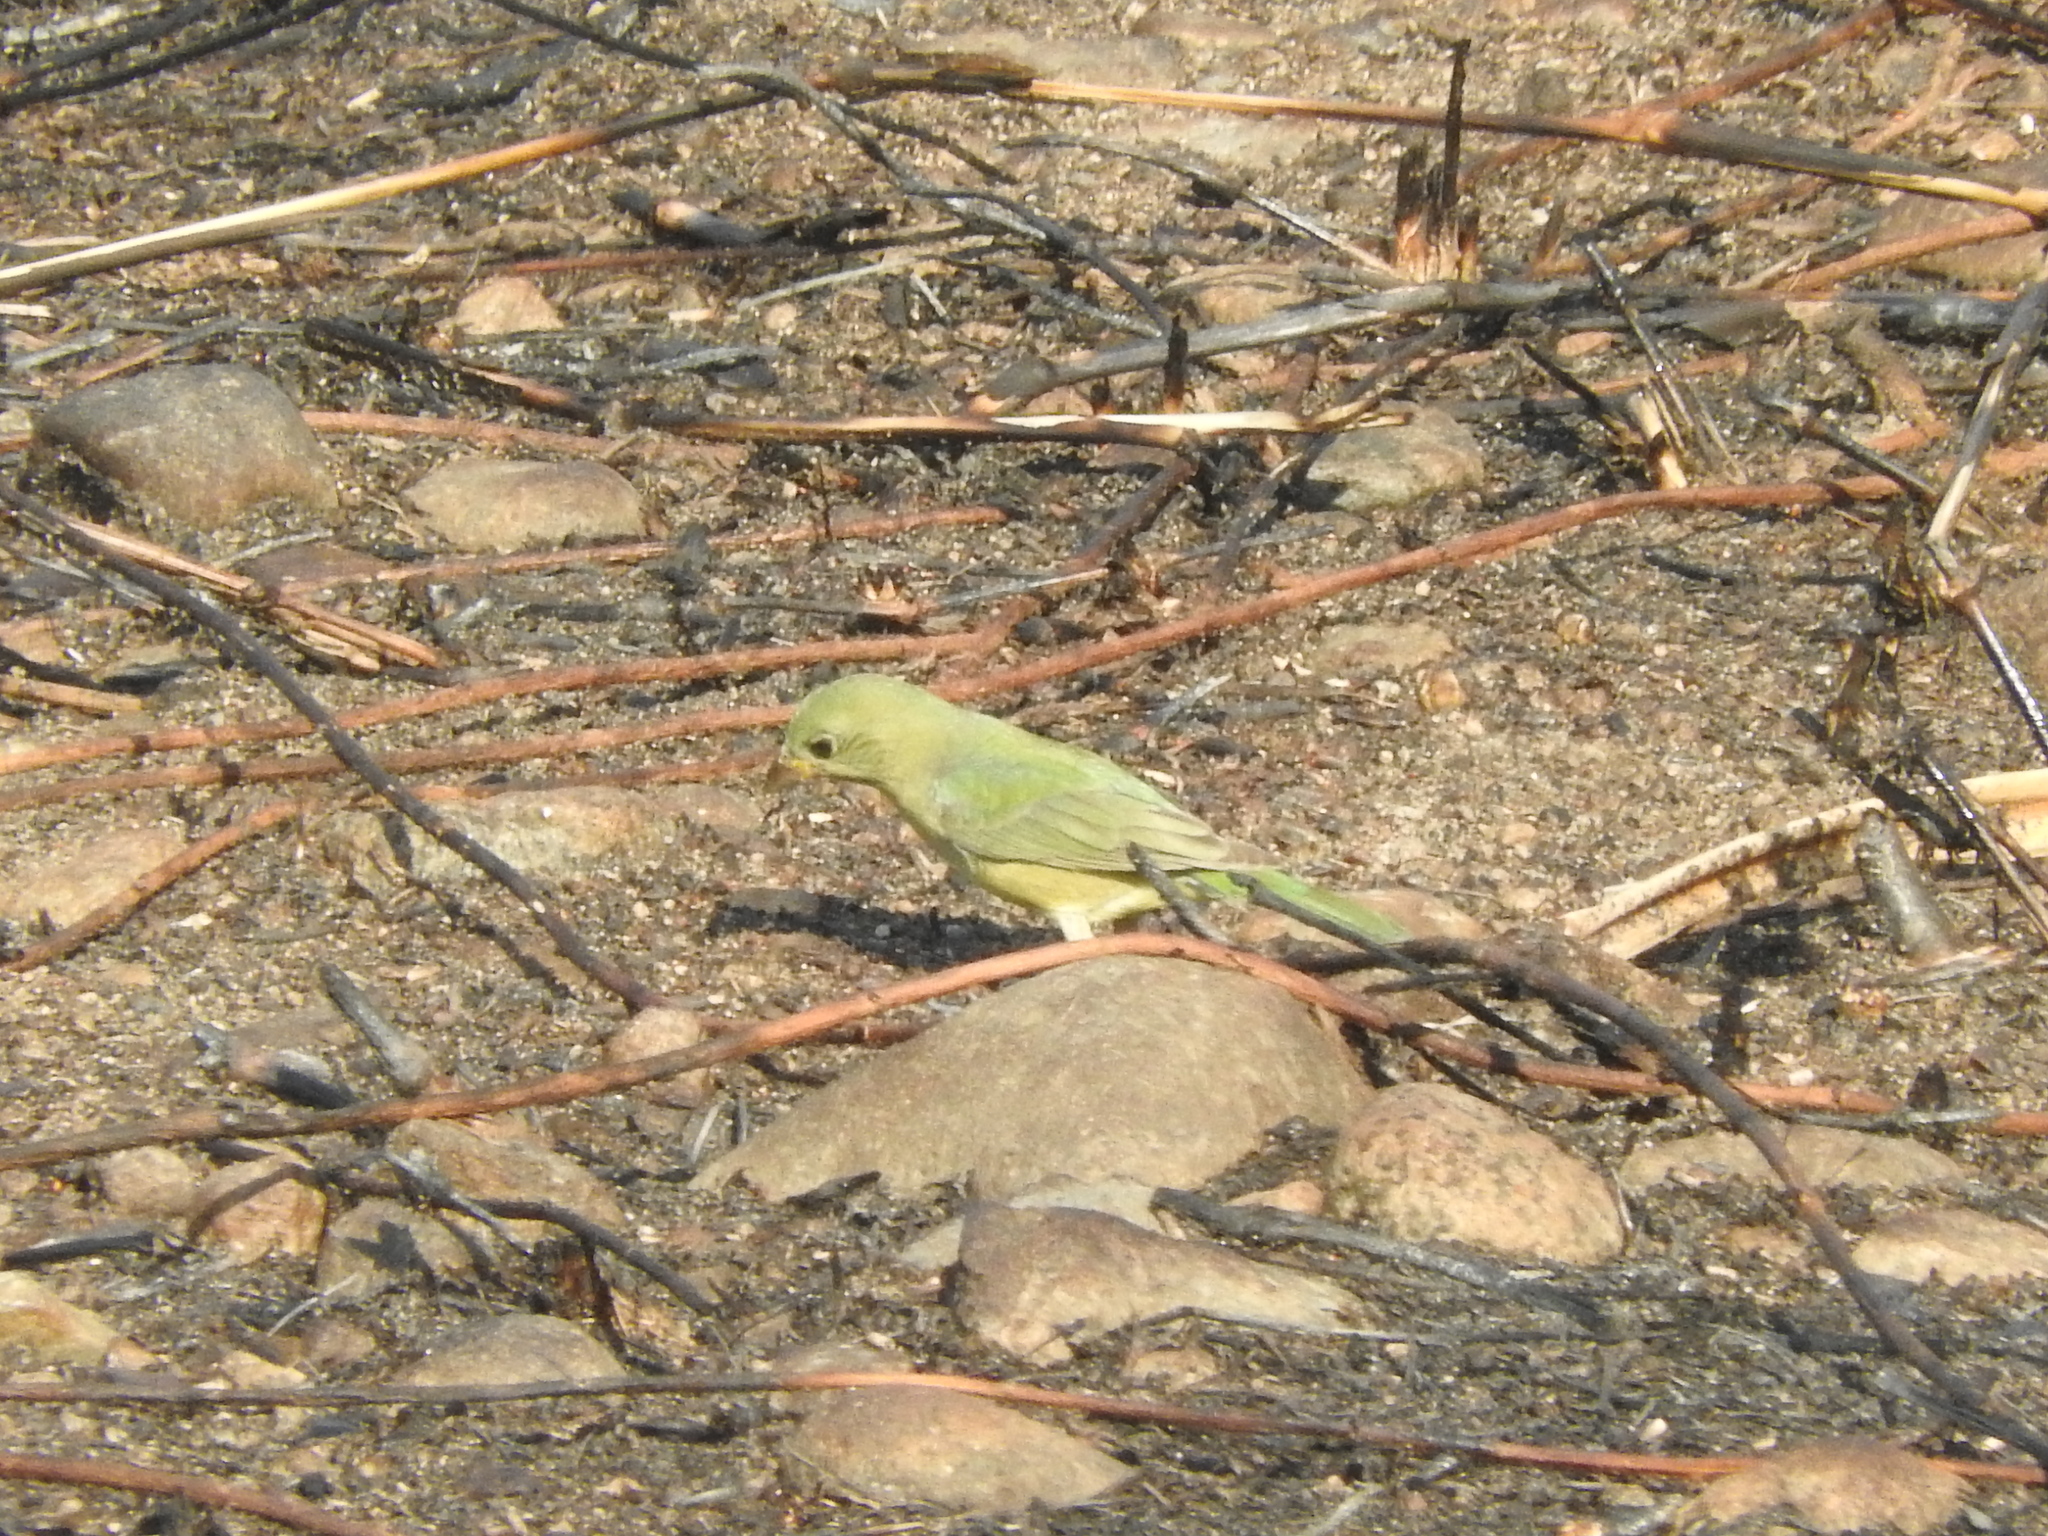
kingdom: Animalia
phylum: Chordata
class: Aves
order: Passeriformes
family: Cardinalidae
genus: Passerina
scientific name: Passerina ciris
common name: Painted bunting
